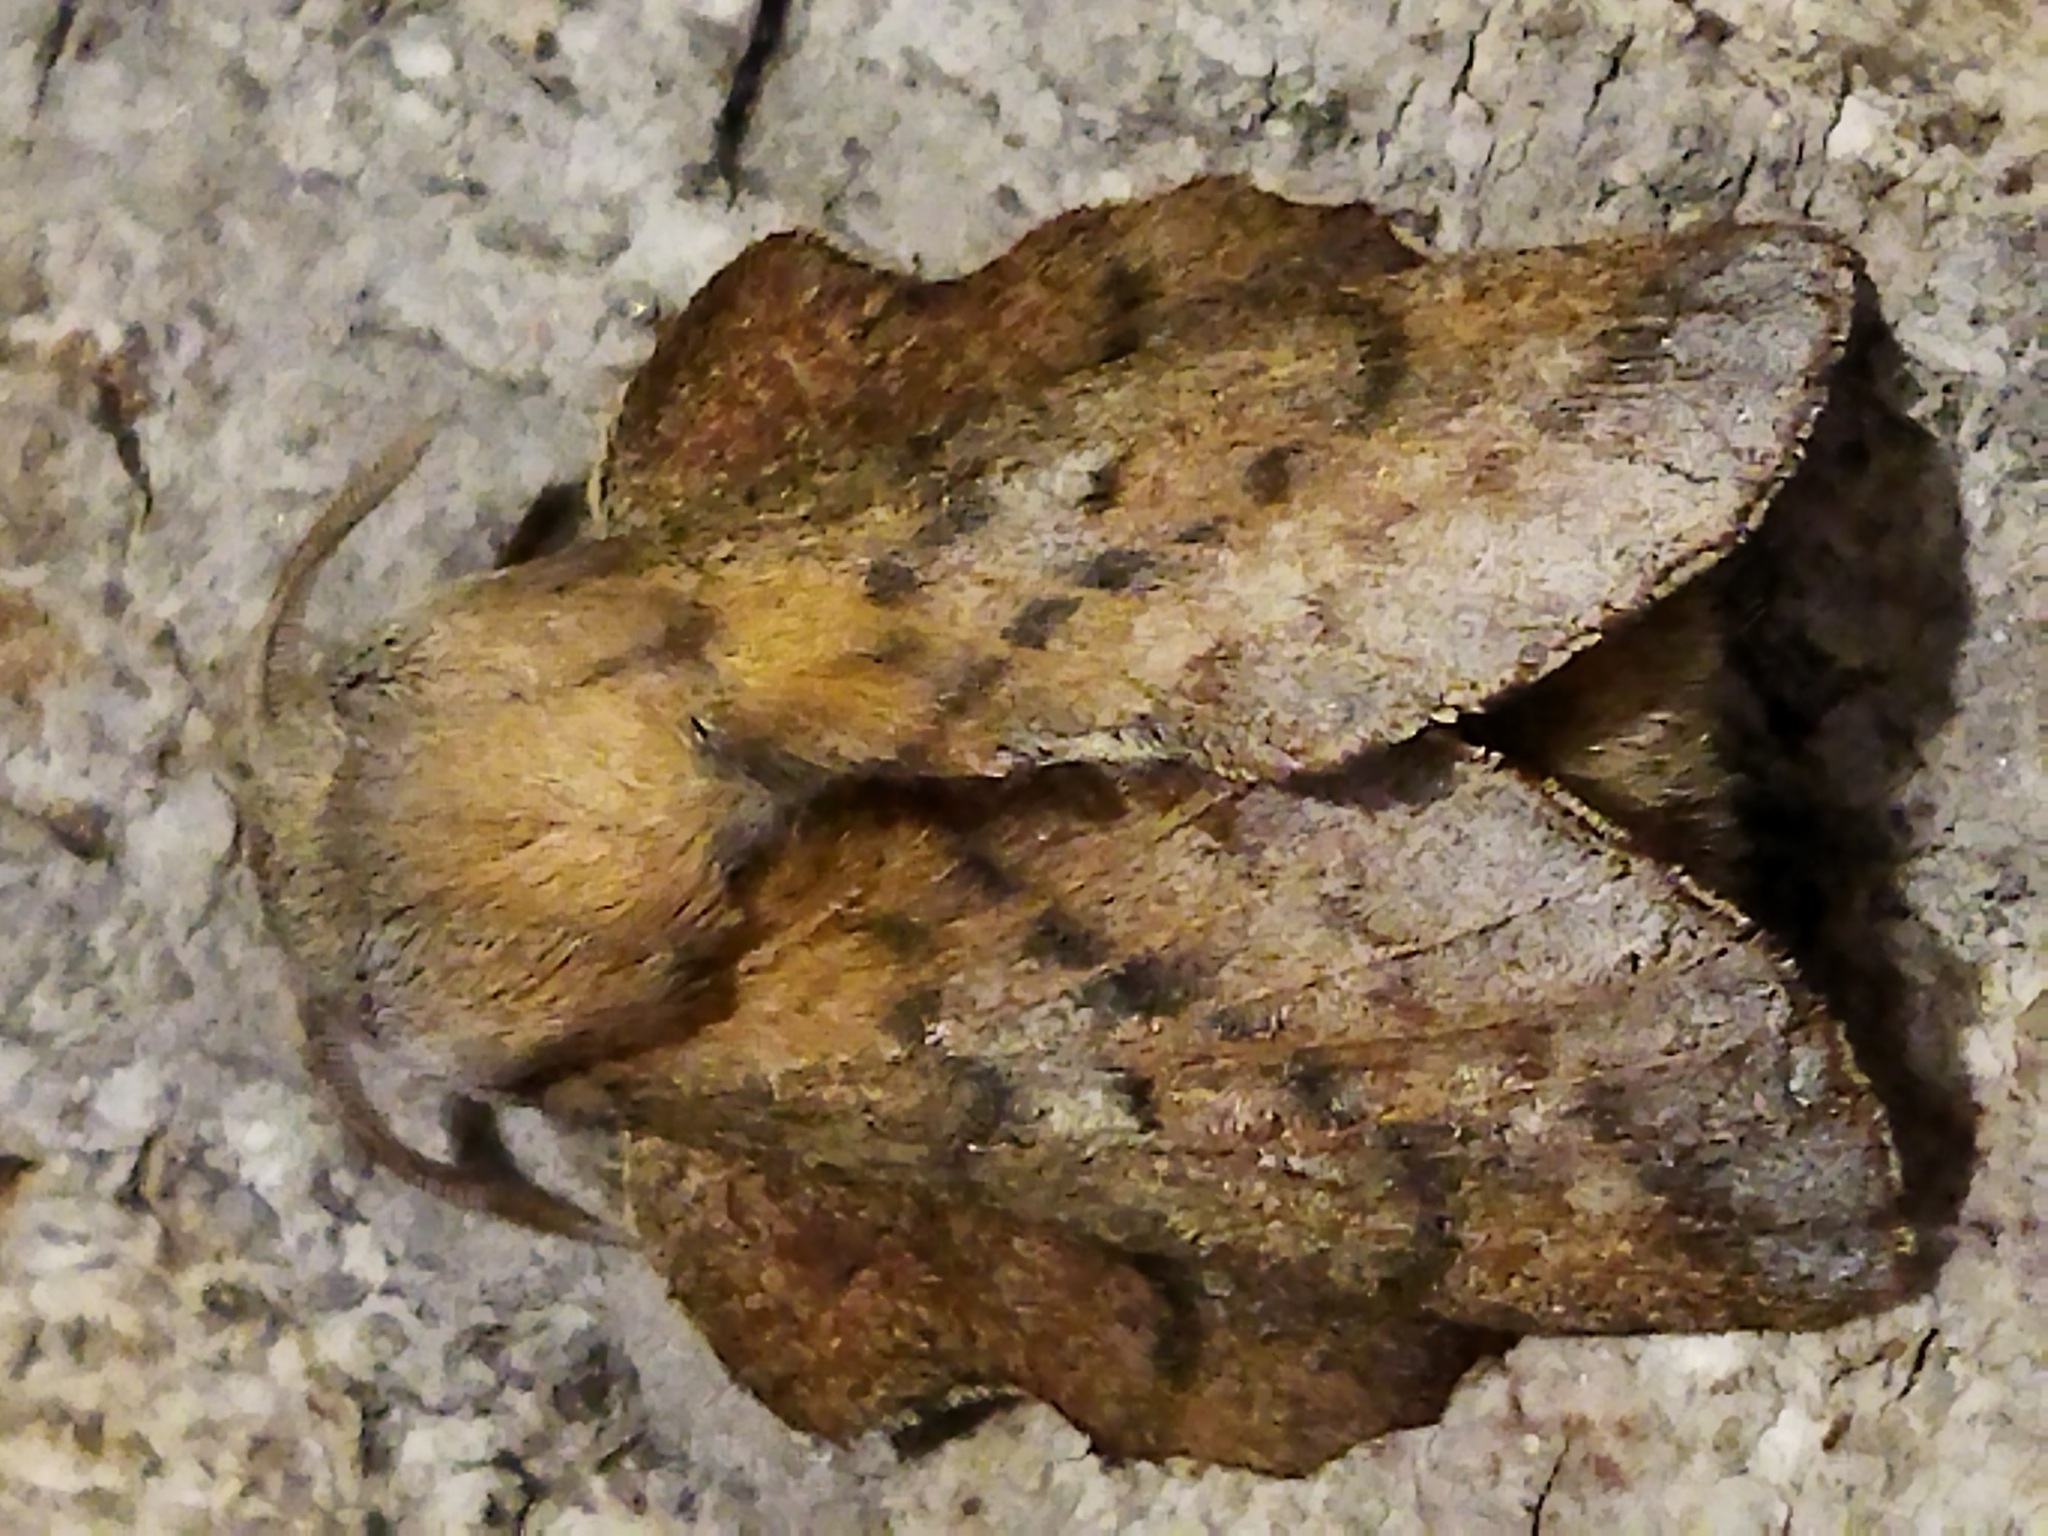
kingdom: Animalia
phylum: Arthropoda
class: Insecta
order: Lepidoptera
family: Lasiocampidae
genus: Phyllodesma
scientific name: Phyllodesma tremulifolia
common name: Aspen lappet
